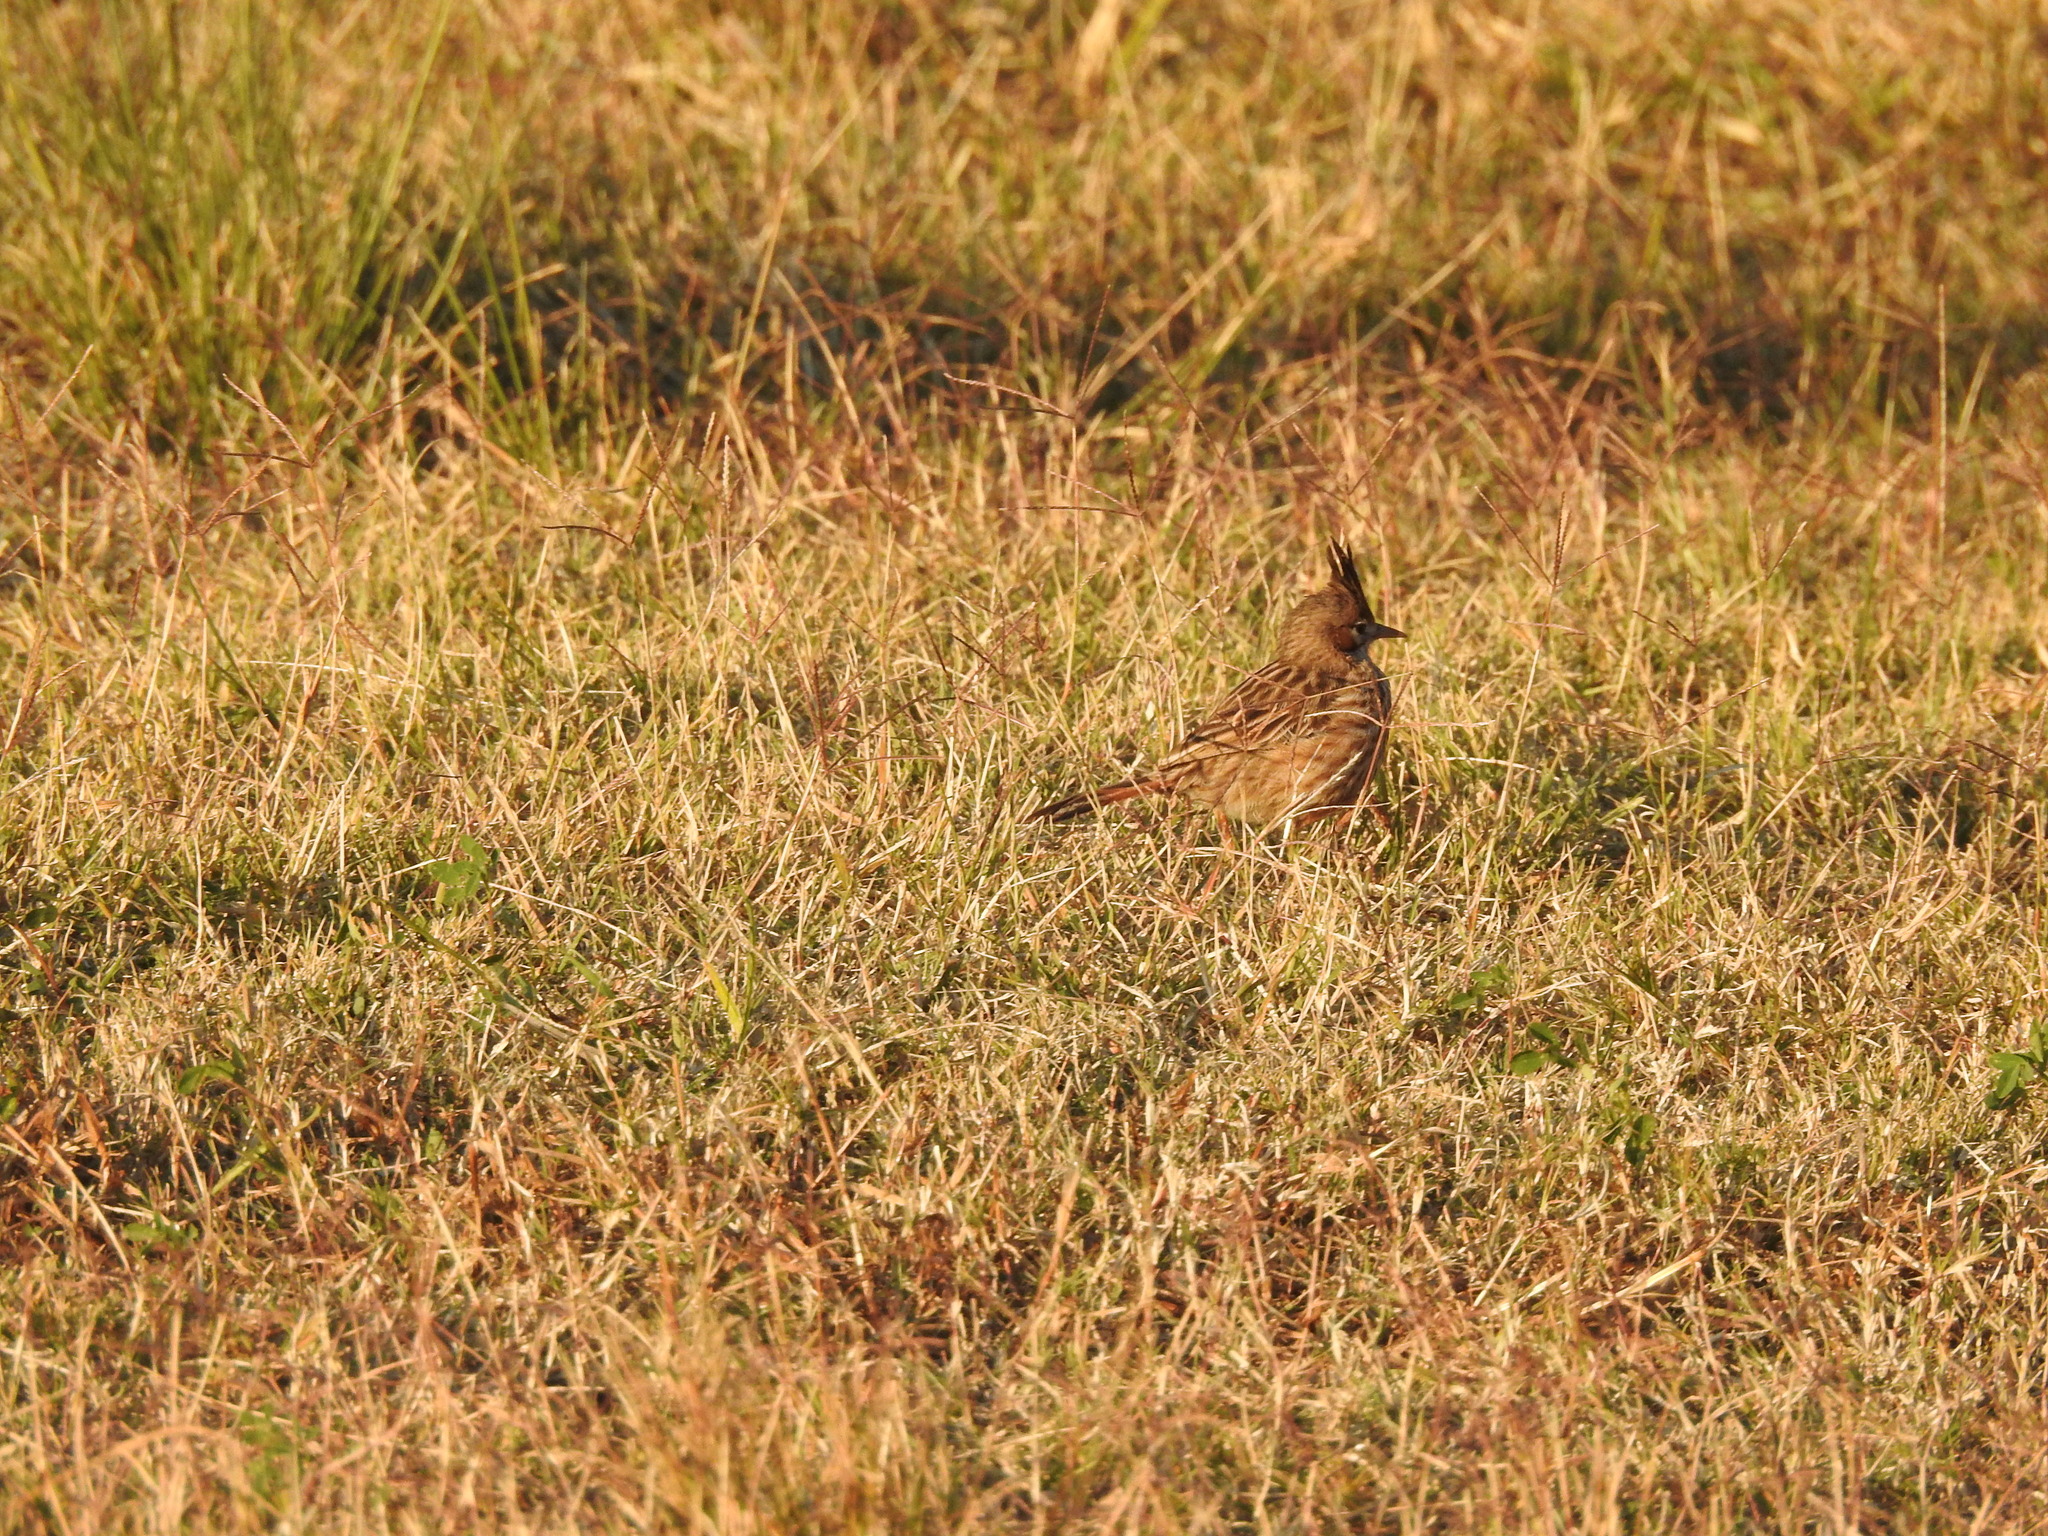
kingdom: Animalia
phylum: Chordata
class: Aves
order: Passeriformes
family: Furnariidae
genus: Coryphistera
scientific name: Coryphistera alaudina
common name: Lark-like brushrunner
